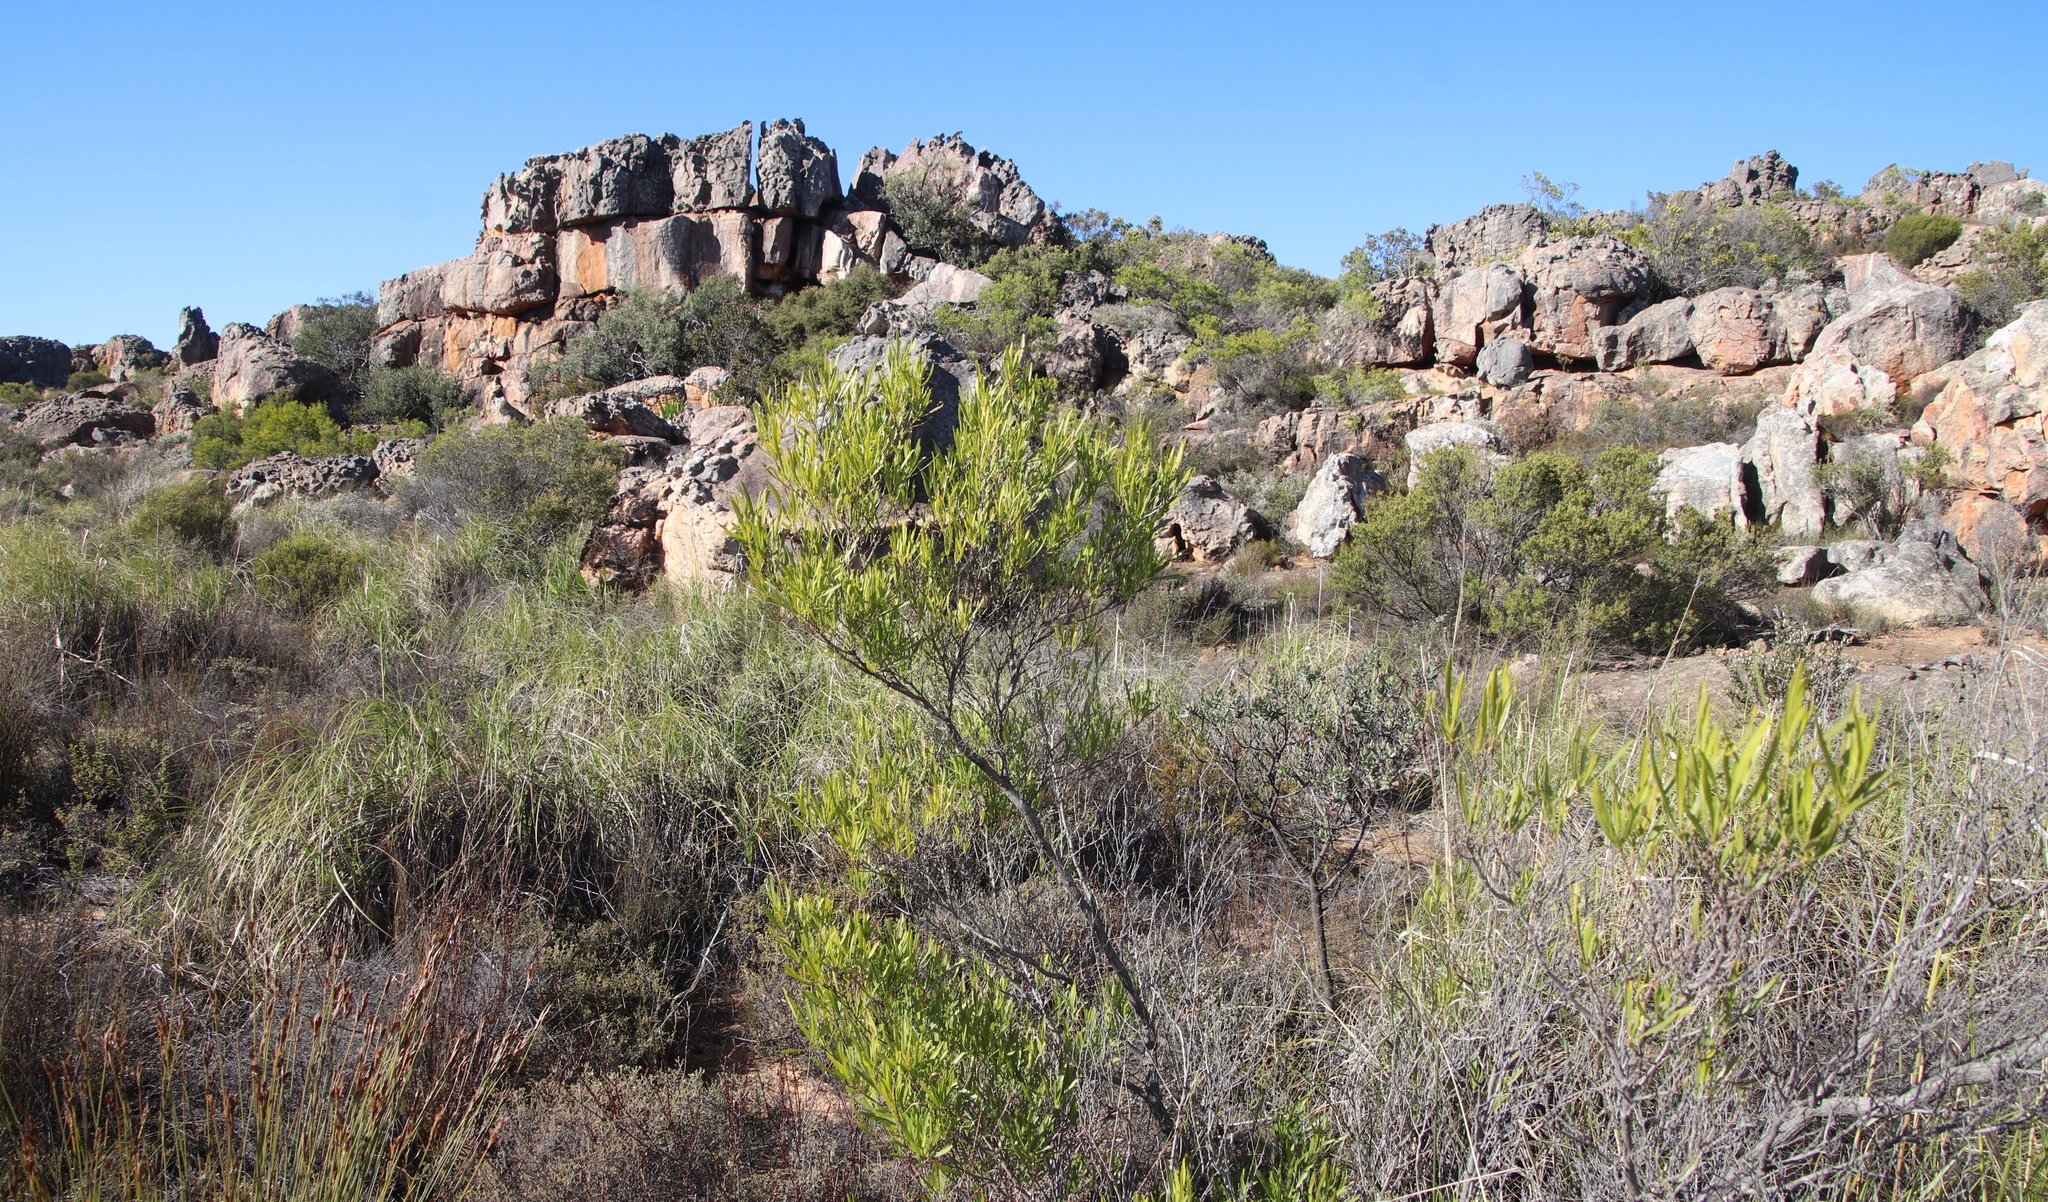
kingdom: Plantae
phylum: Tracheophyta
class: Magnoliopsida
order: Sapindales
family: Sapindaceae
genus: Dodonaea
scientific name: Dodonaea viscosa
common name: Hopbush
